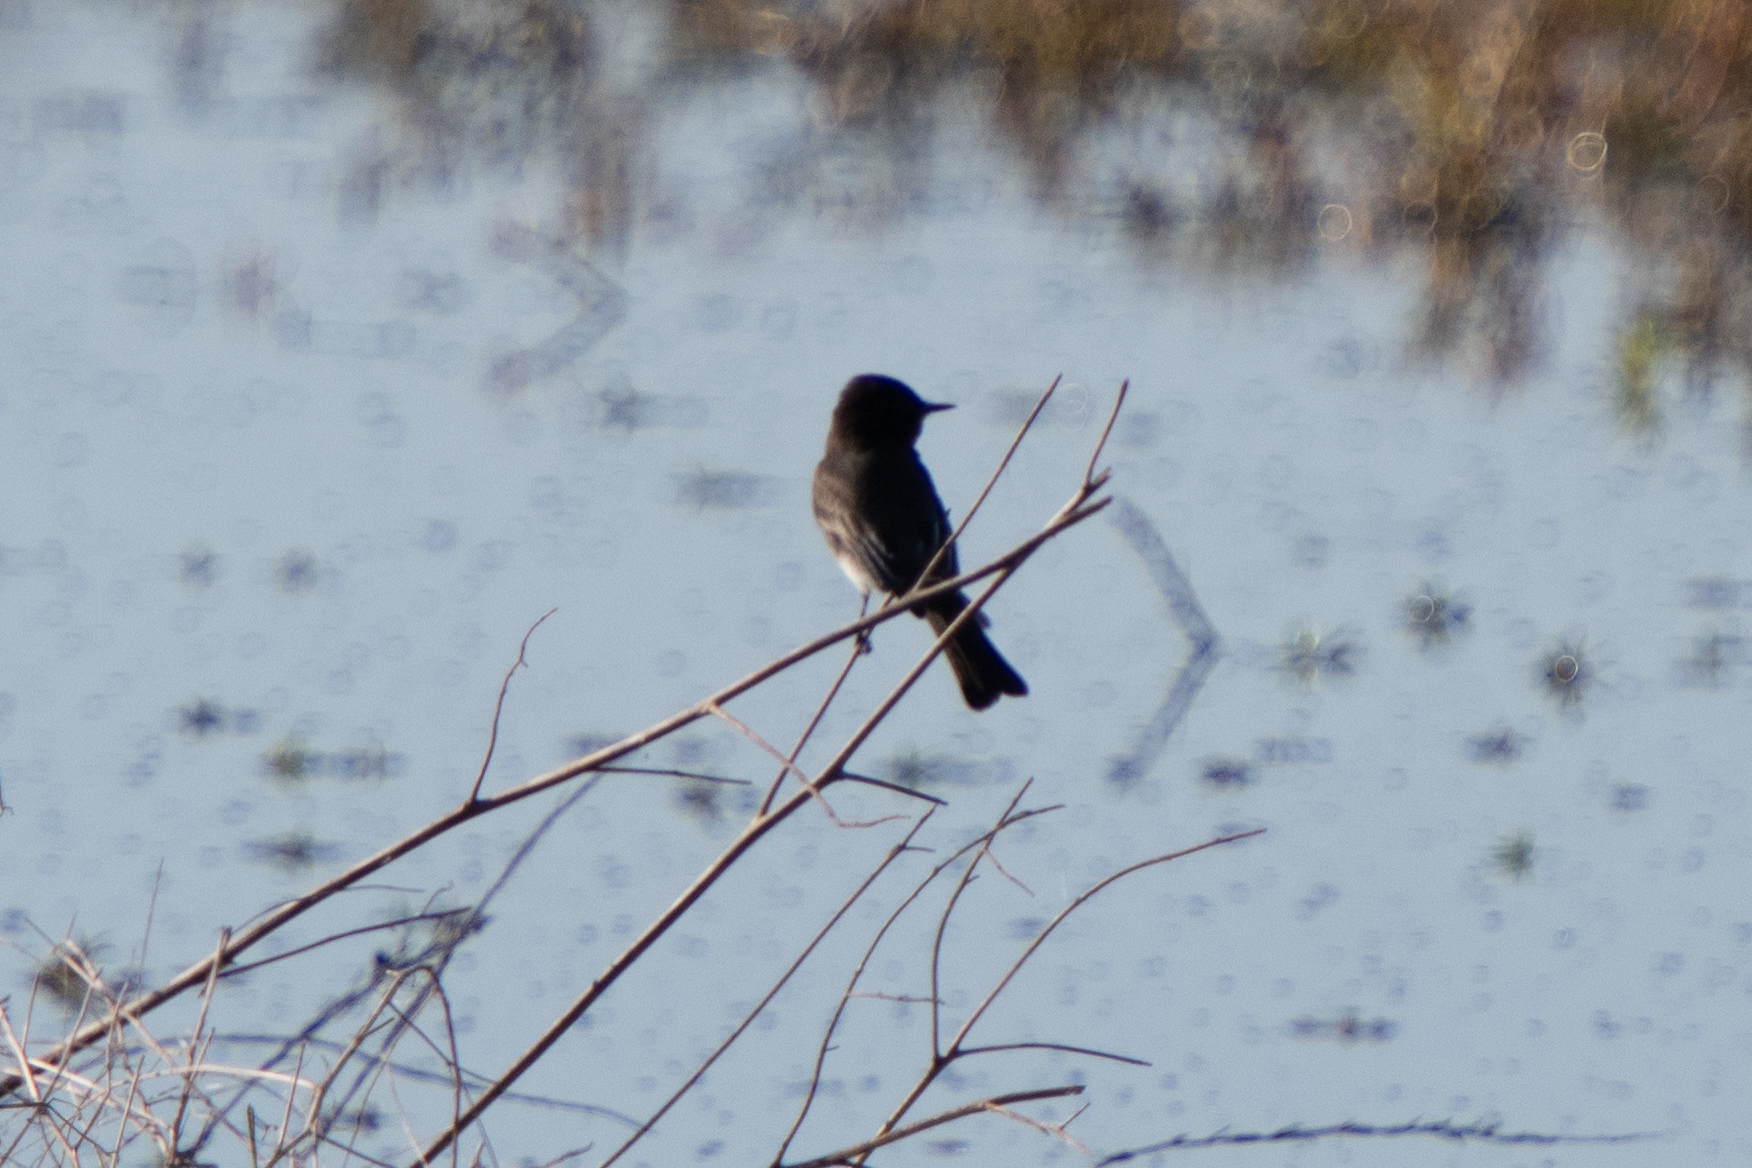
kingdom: Animalia
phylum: Chordata
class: Aves
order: Passeriformes
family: Tyrannidae
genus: Sayornis
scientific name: Sayornis nigricans
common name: Black phoebe
